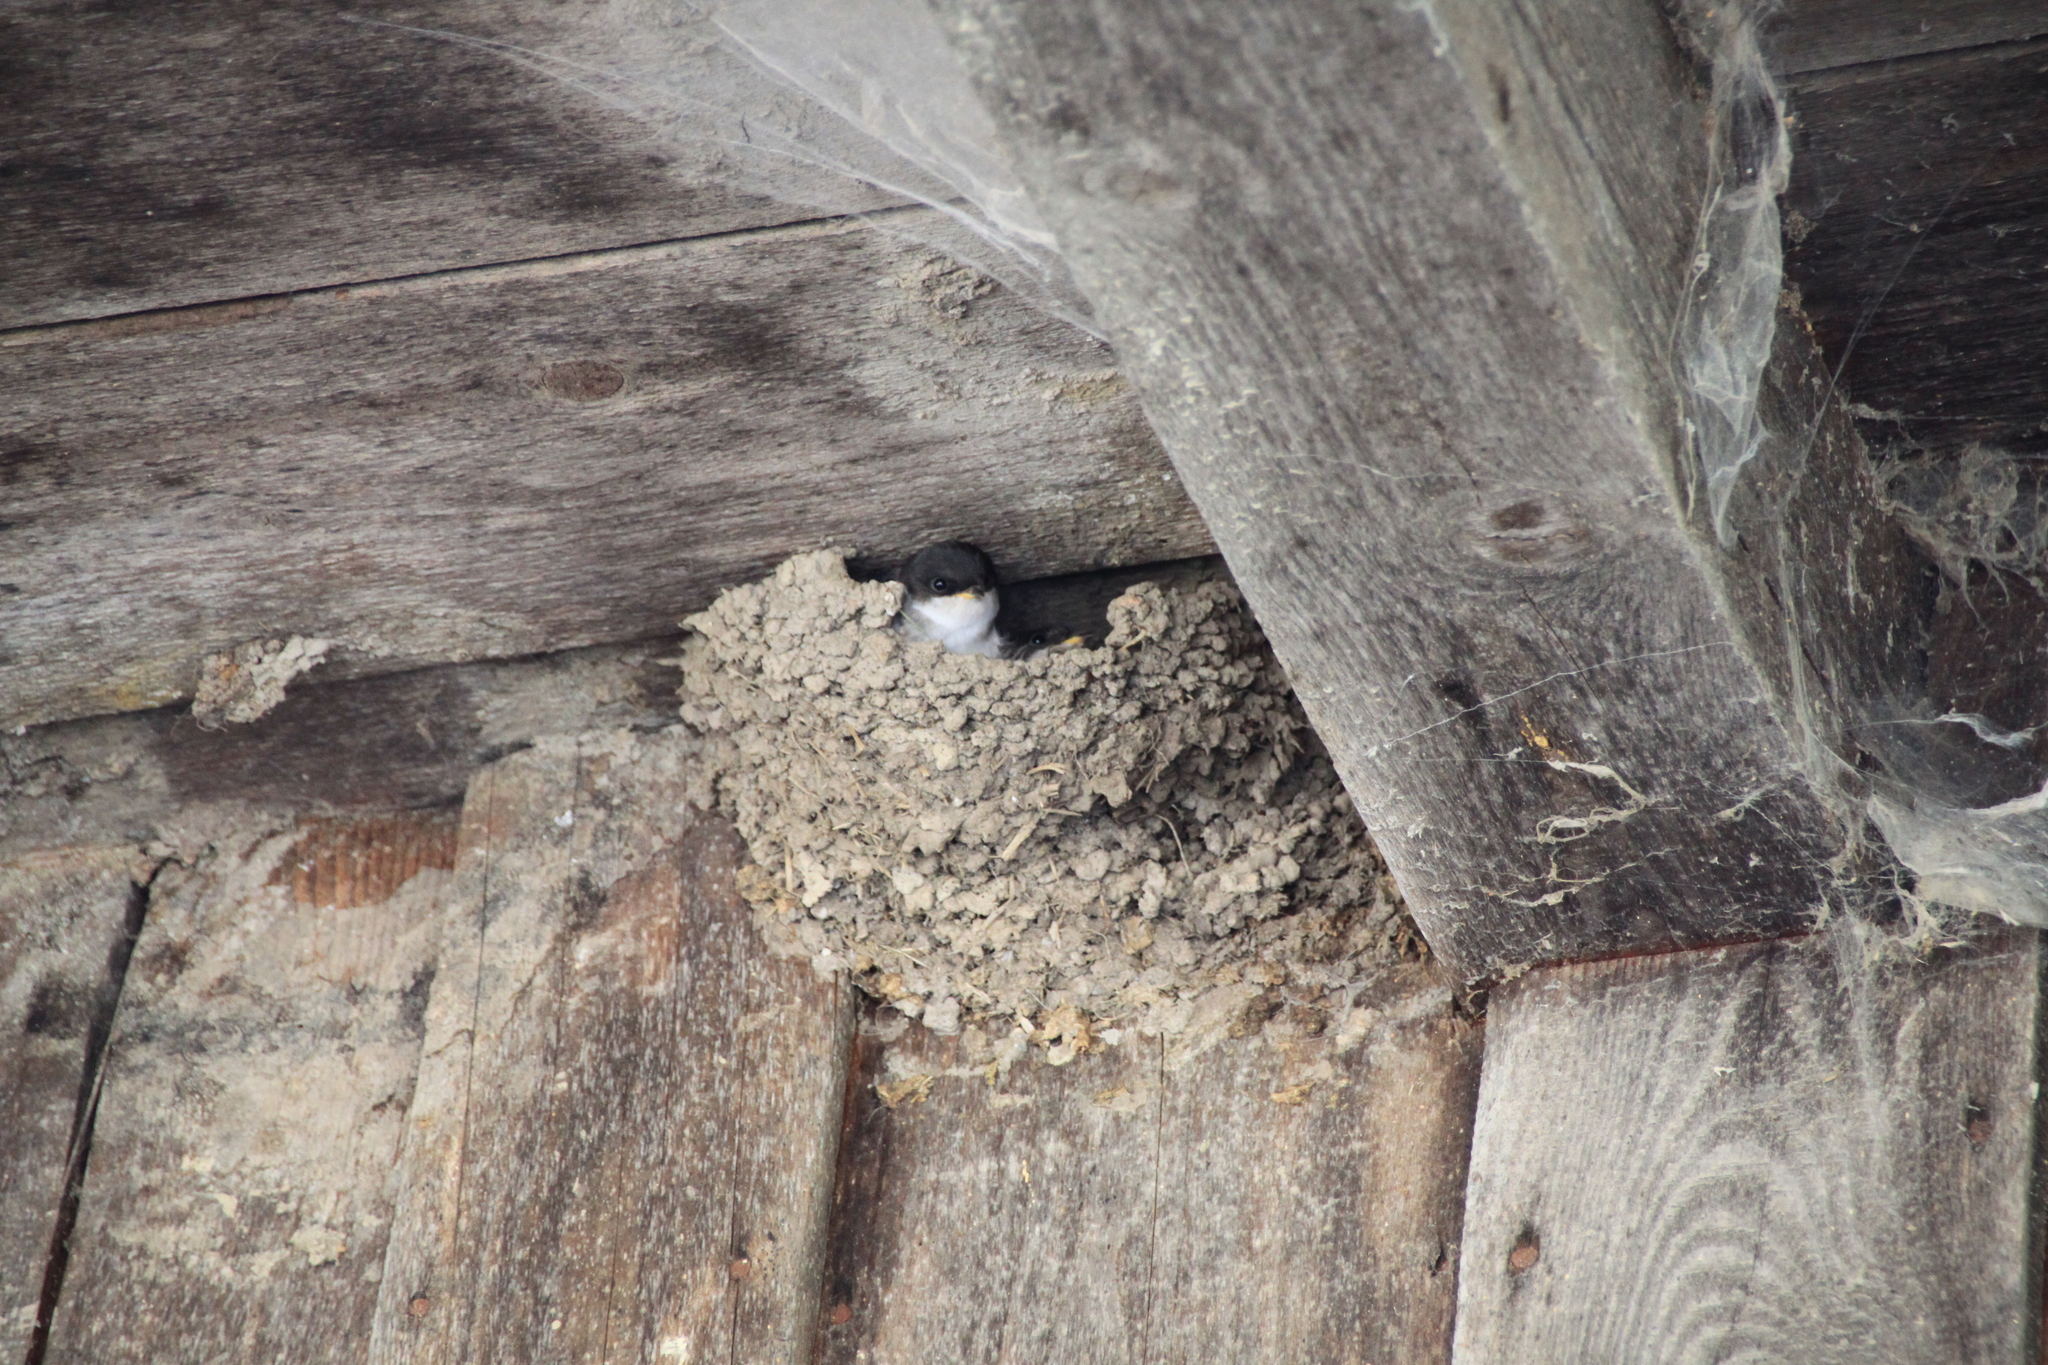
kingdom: Animalia
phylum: Chordata
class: Aves
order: Passeriformes
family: Hirundinidae
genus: Delichon
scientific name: Delichon urbicum
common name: Common house martin
